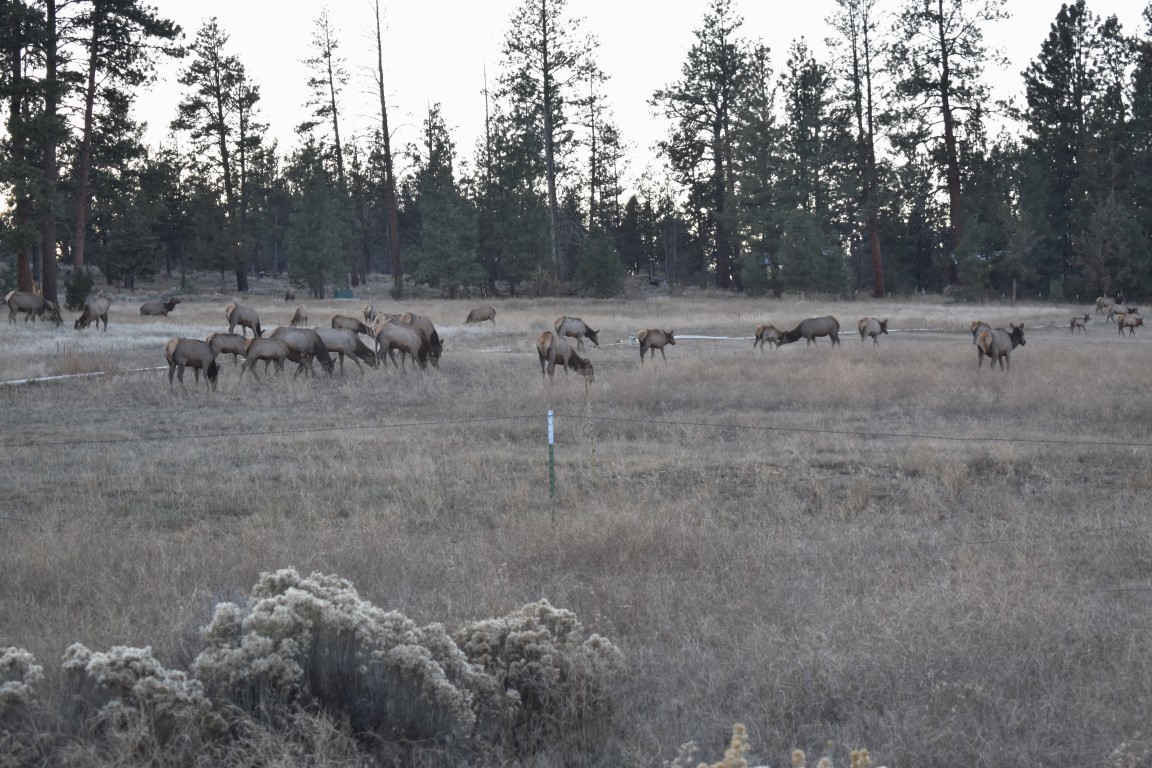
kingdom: Animalia
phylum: Chordata
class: Mammalia
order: Artiodactyla
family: Cervidae
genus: Cervus
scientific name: Cervus elaphus
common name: Red deer
